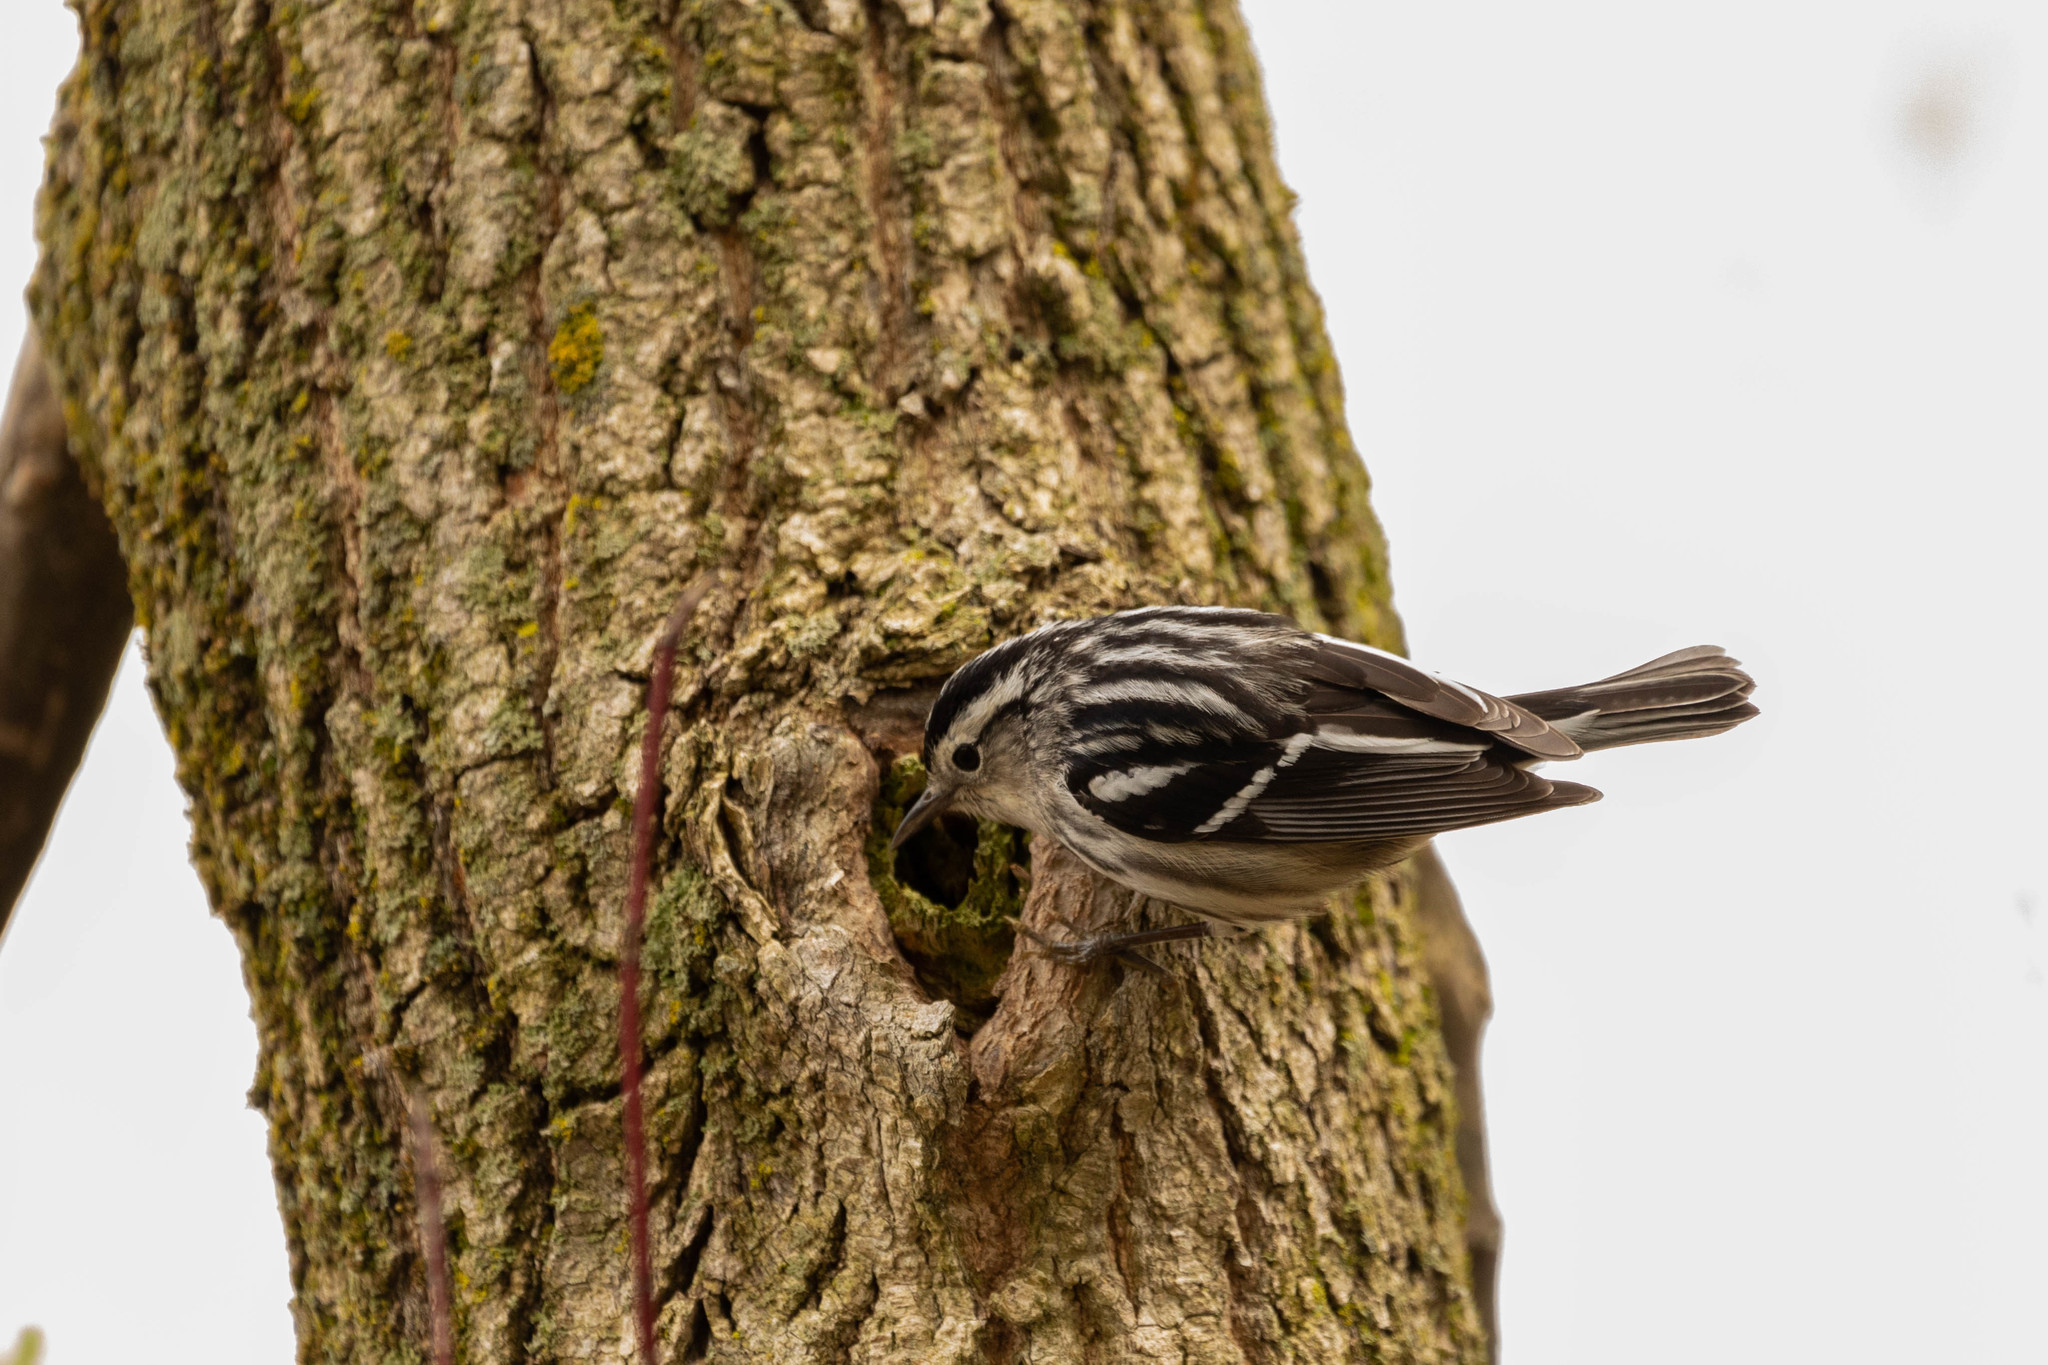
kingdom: Animalia
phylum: Chordata
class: Aves
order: Passeriformes
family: Parulidae
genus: Mniotilta
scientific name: Mniotilta varia
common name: Black-and-white warbler
